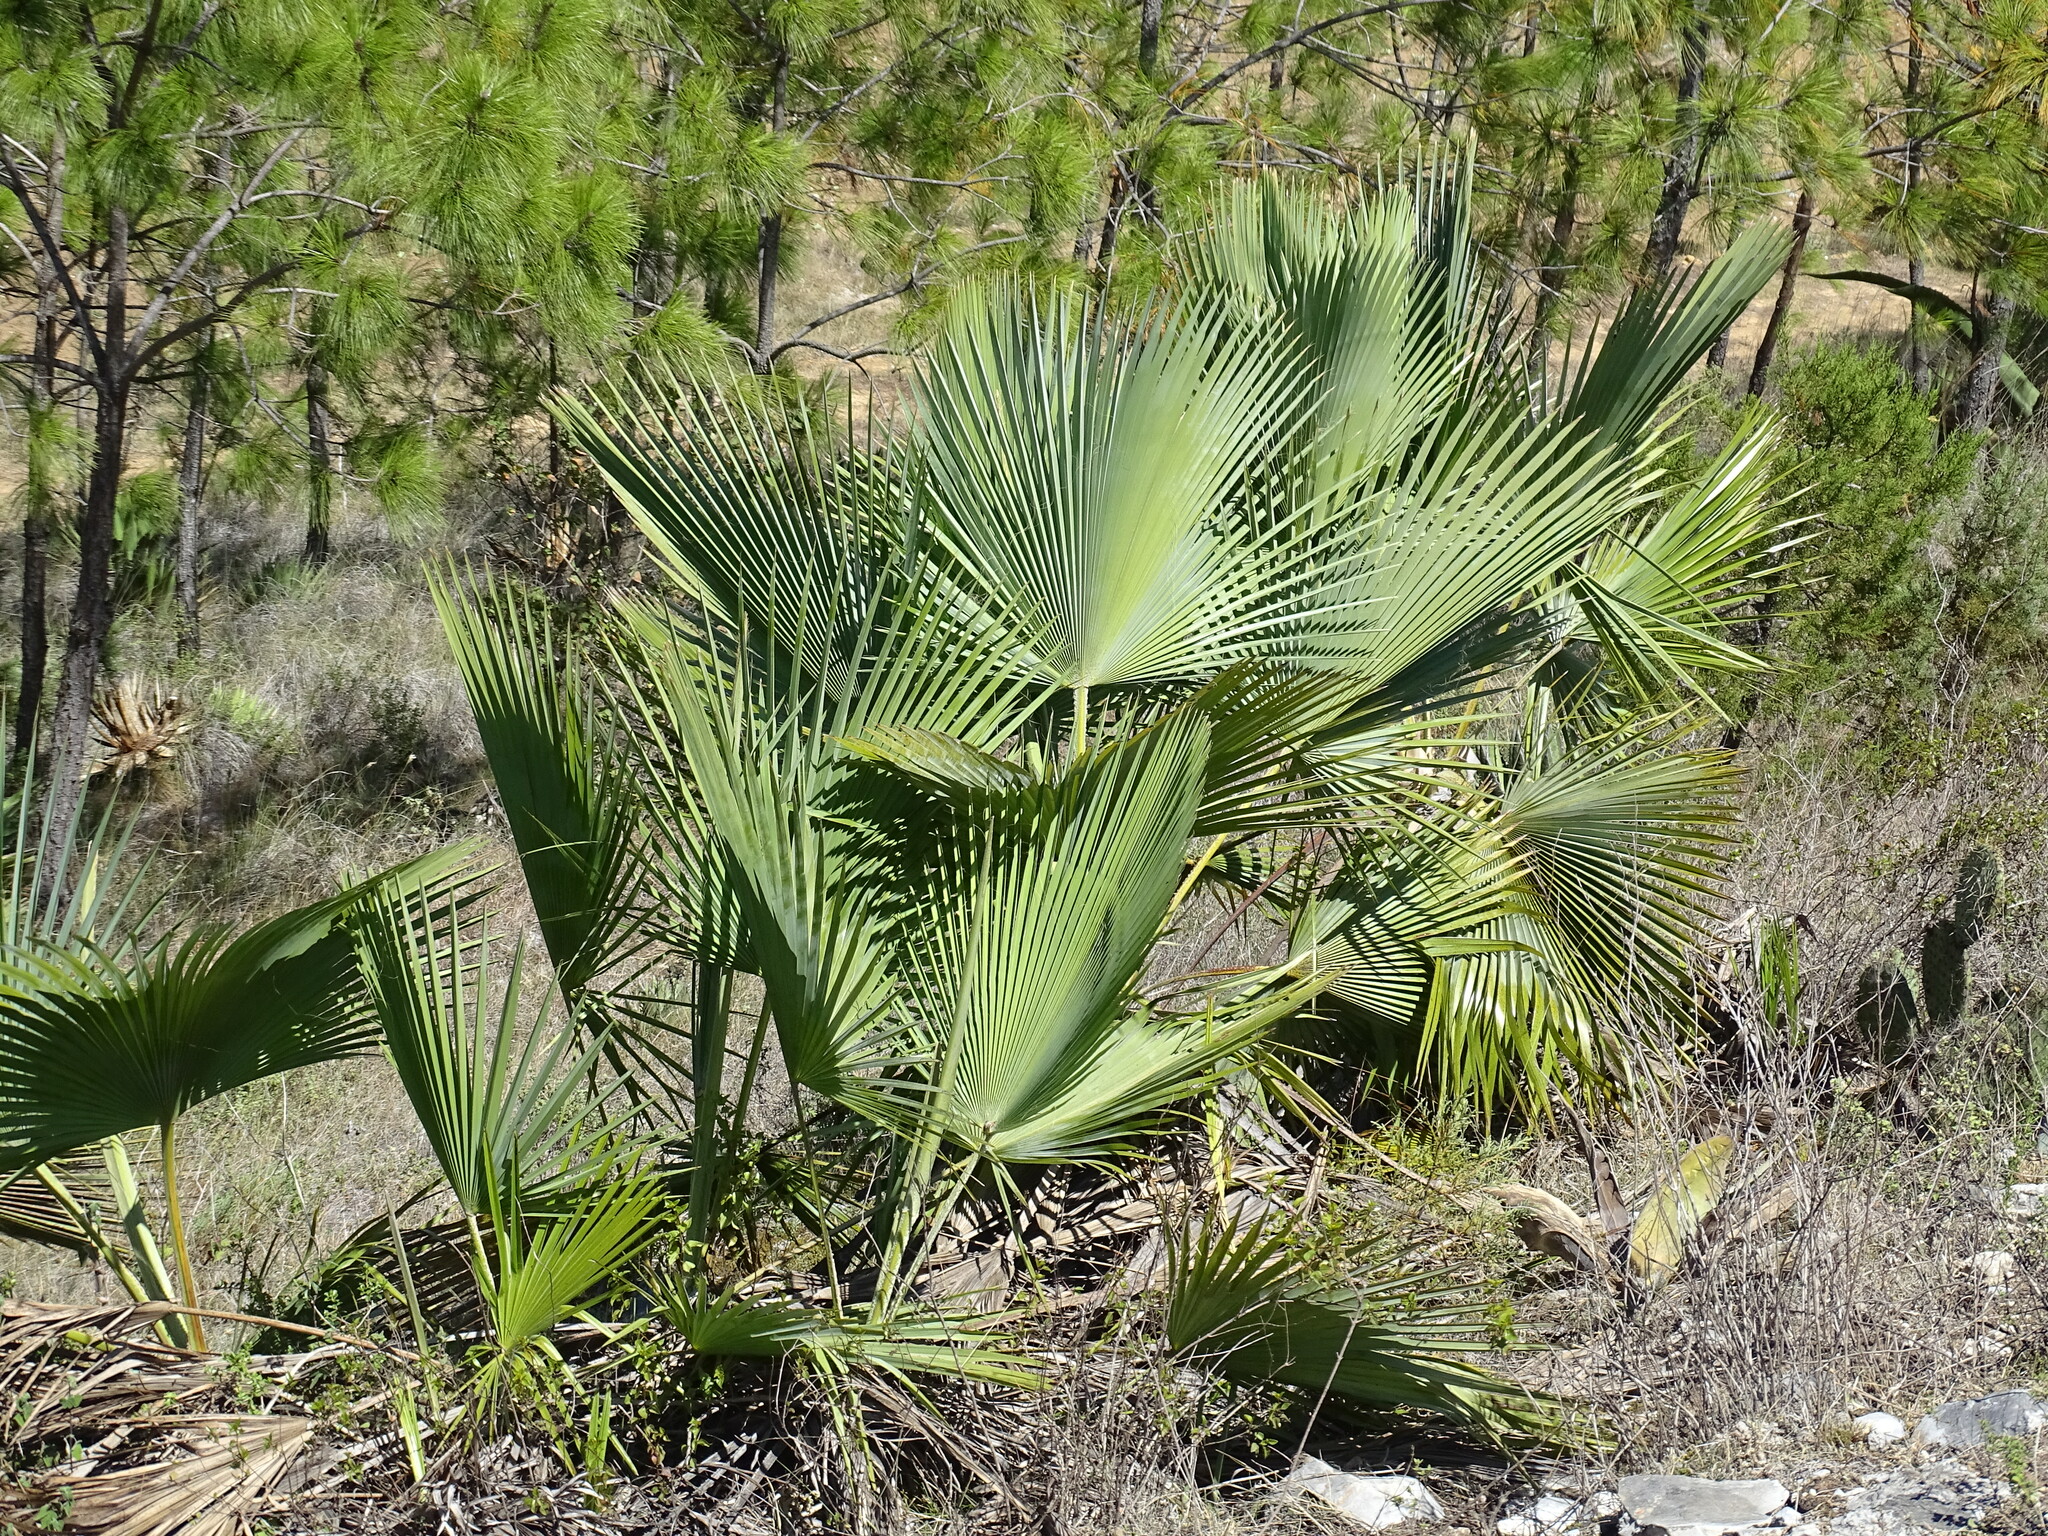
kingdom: Plantae
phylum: Tracheophyta
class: Liliopsida
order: Arecales
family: Arecaceae
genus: Brahea
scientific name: Brahea dulcis
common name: Apak palm
